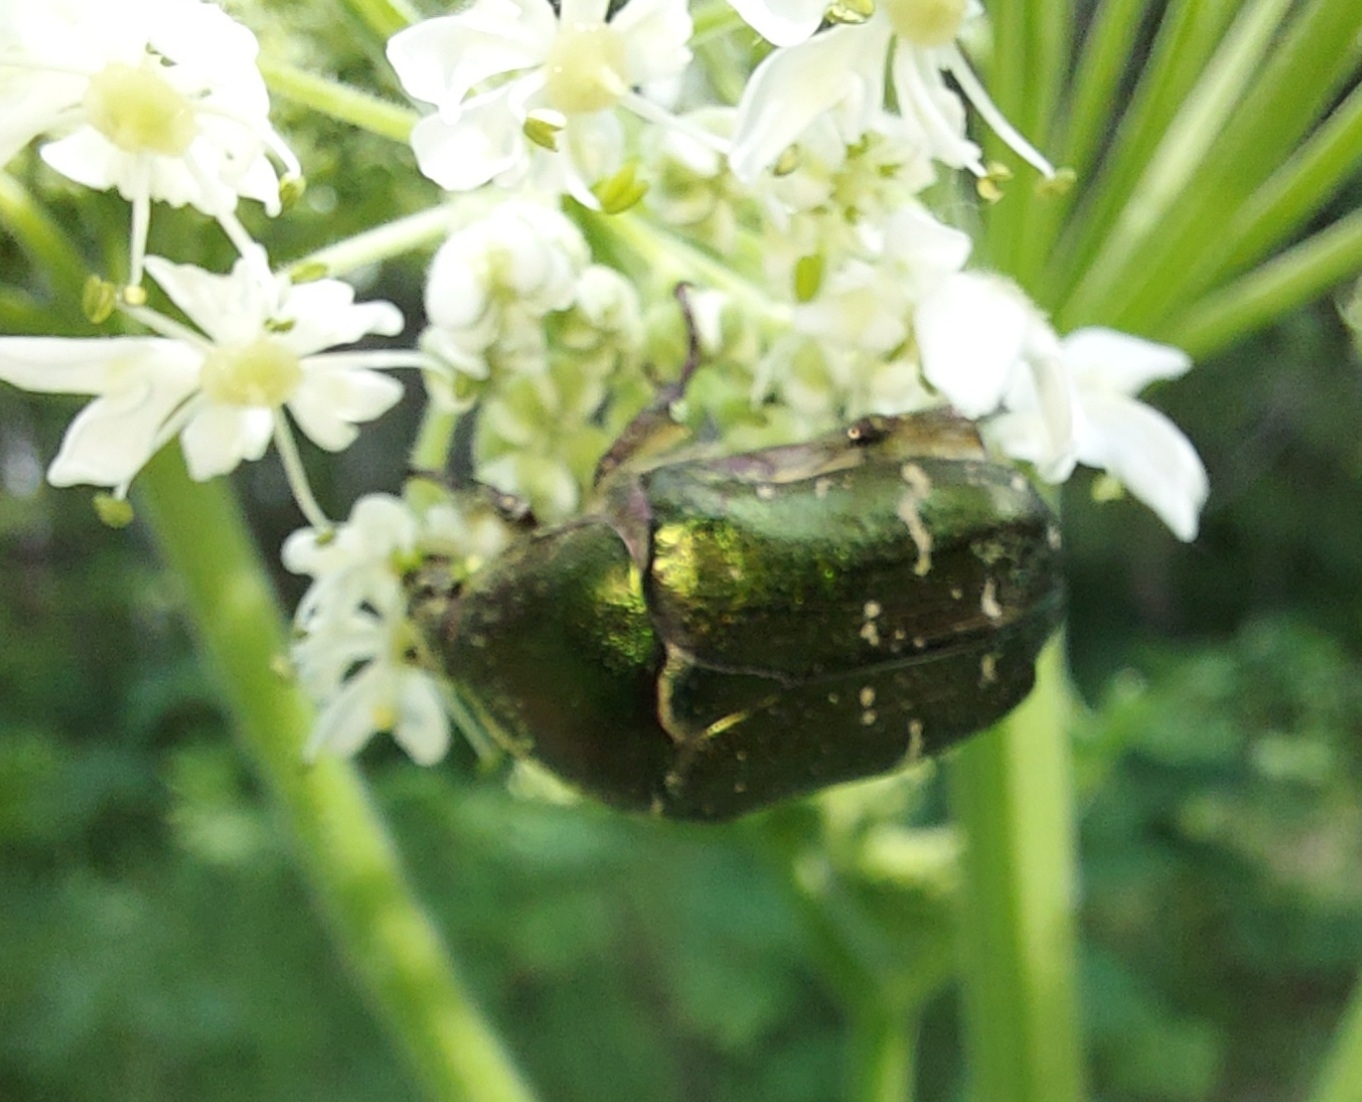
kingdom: Animalia
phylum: Arthropoda
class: Insecta
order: Coleoptera
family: Scarabaeidae
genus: Cetonia
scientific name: Cetonia aurata
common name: Rose chafer
